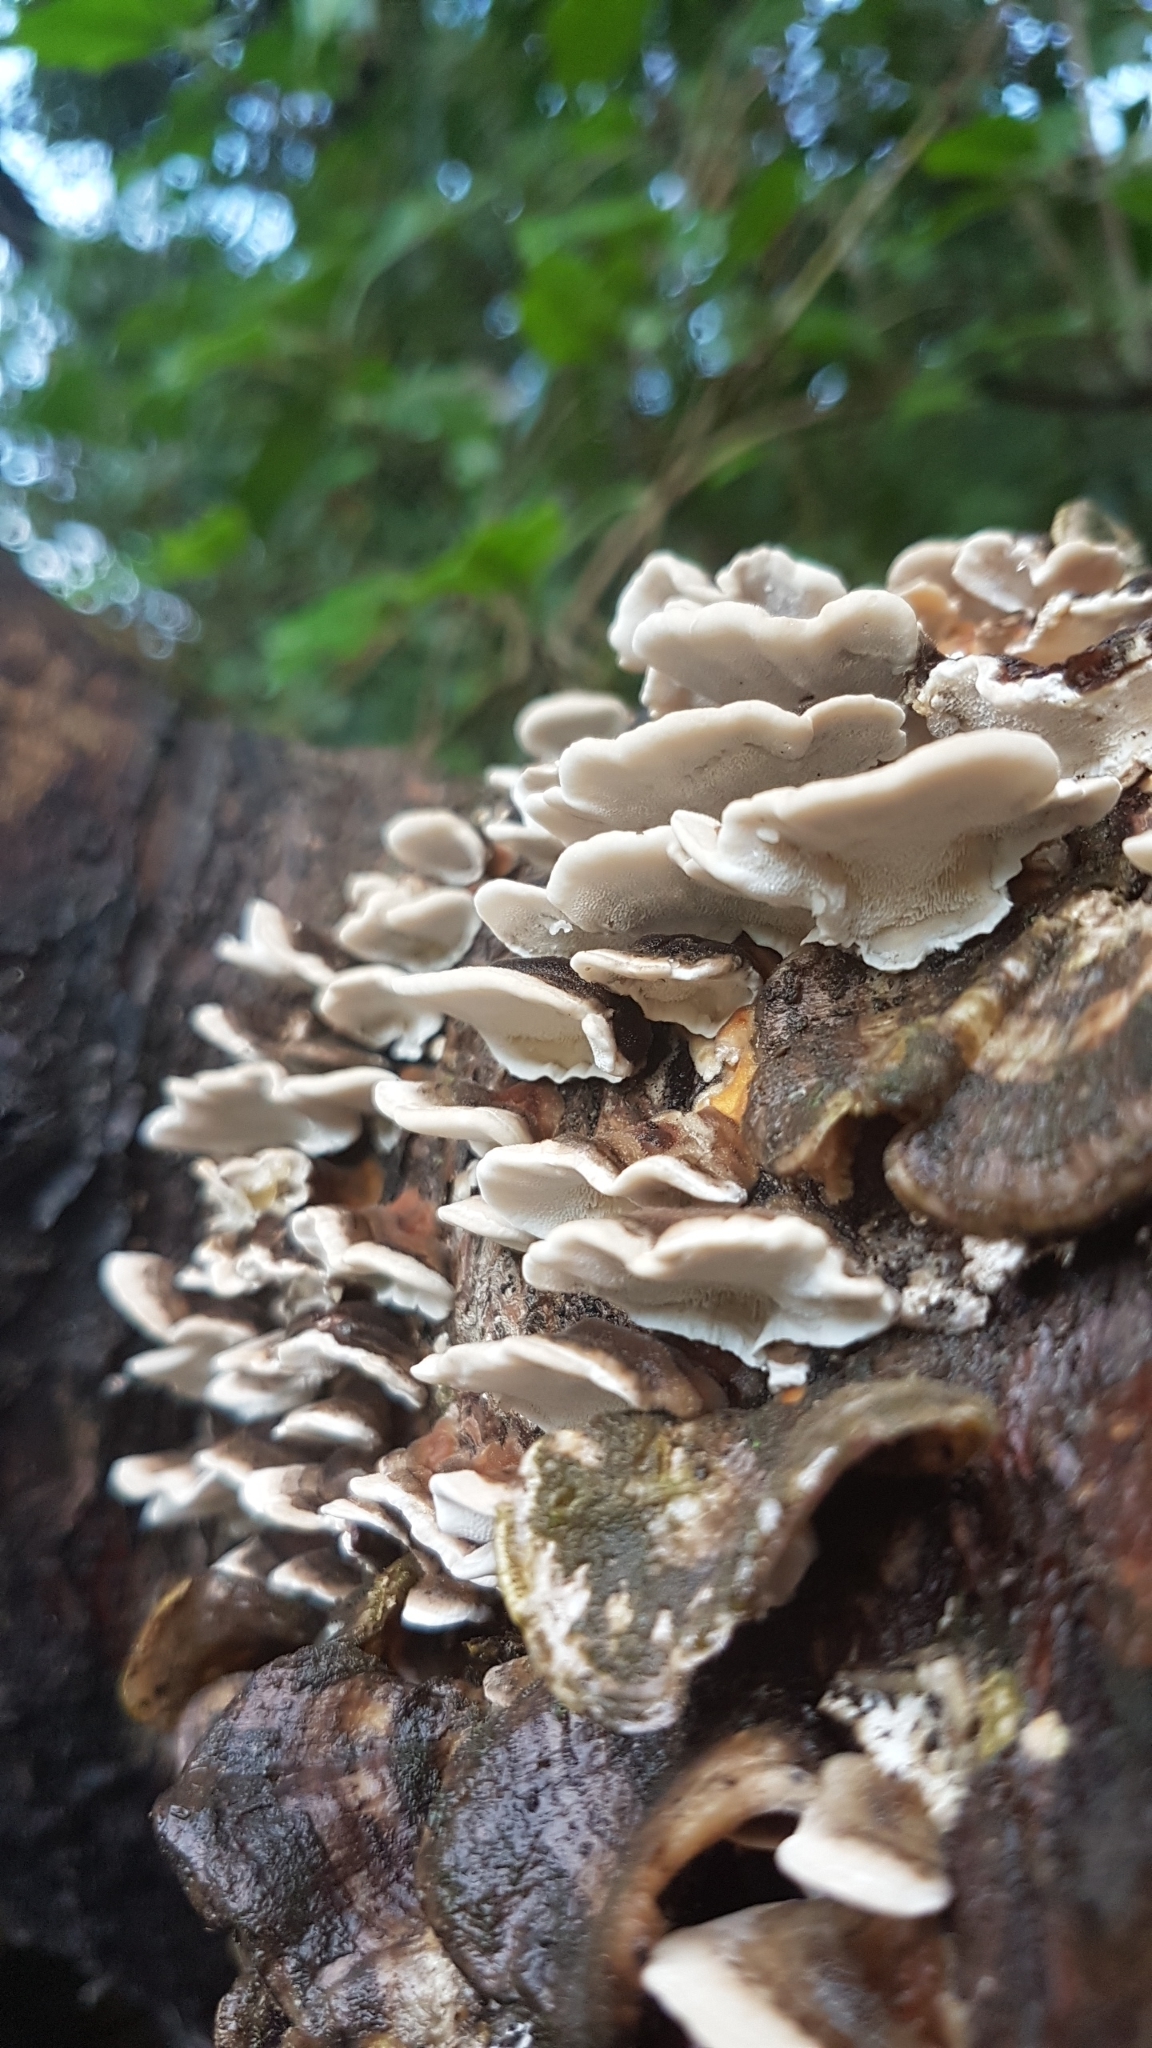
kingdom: Fungi
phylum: Basidiomycota
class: Agaricomycetes
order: Polyporales
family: Polyporaceae
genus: Trametes
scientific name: Trametes versicolor
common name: Turkeytail
